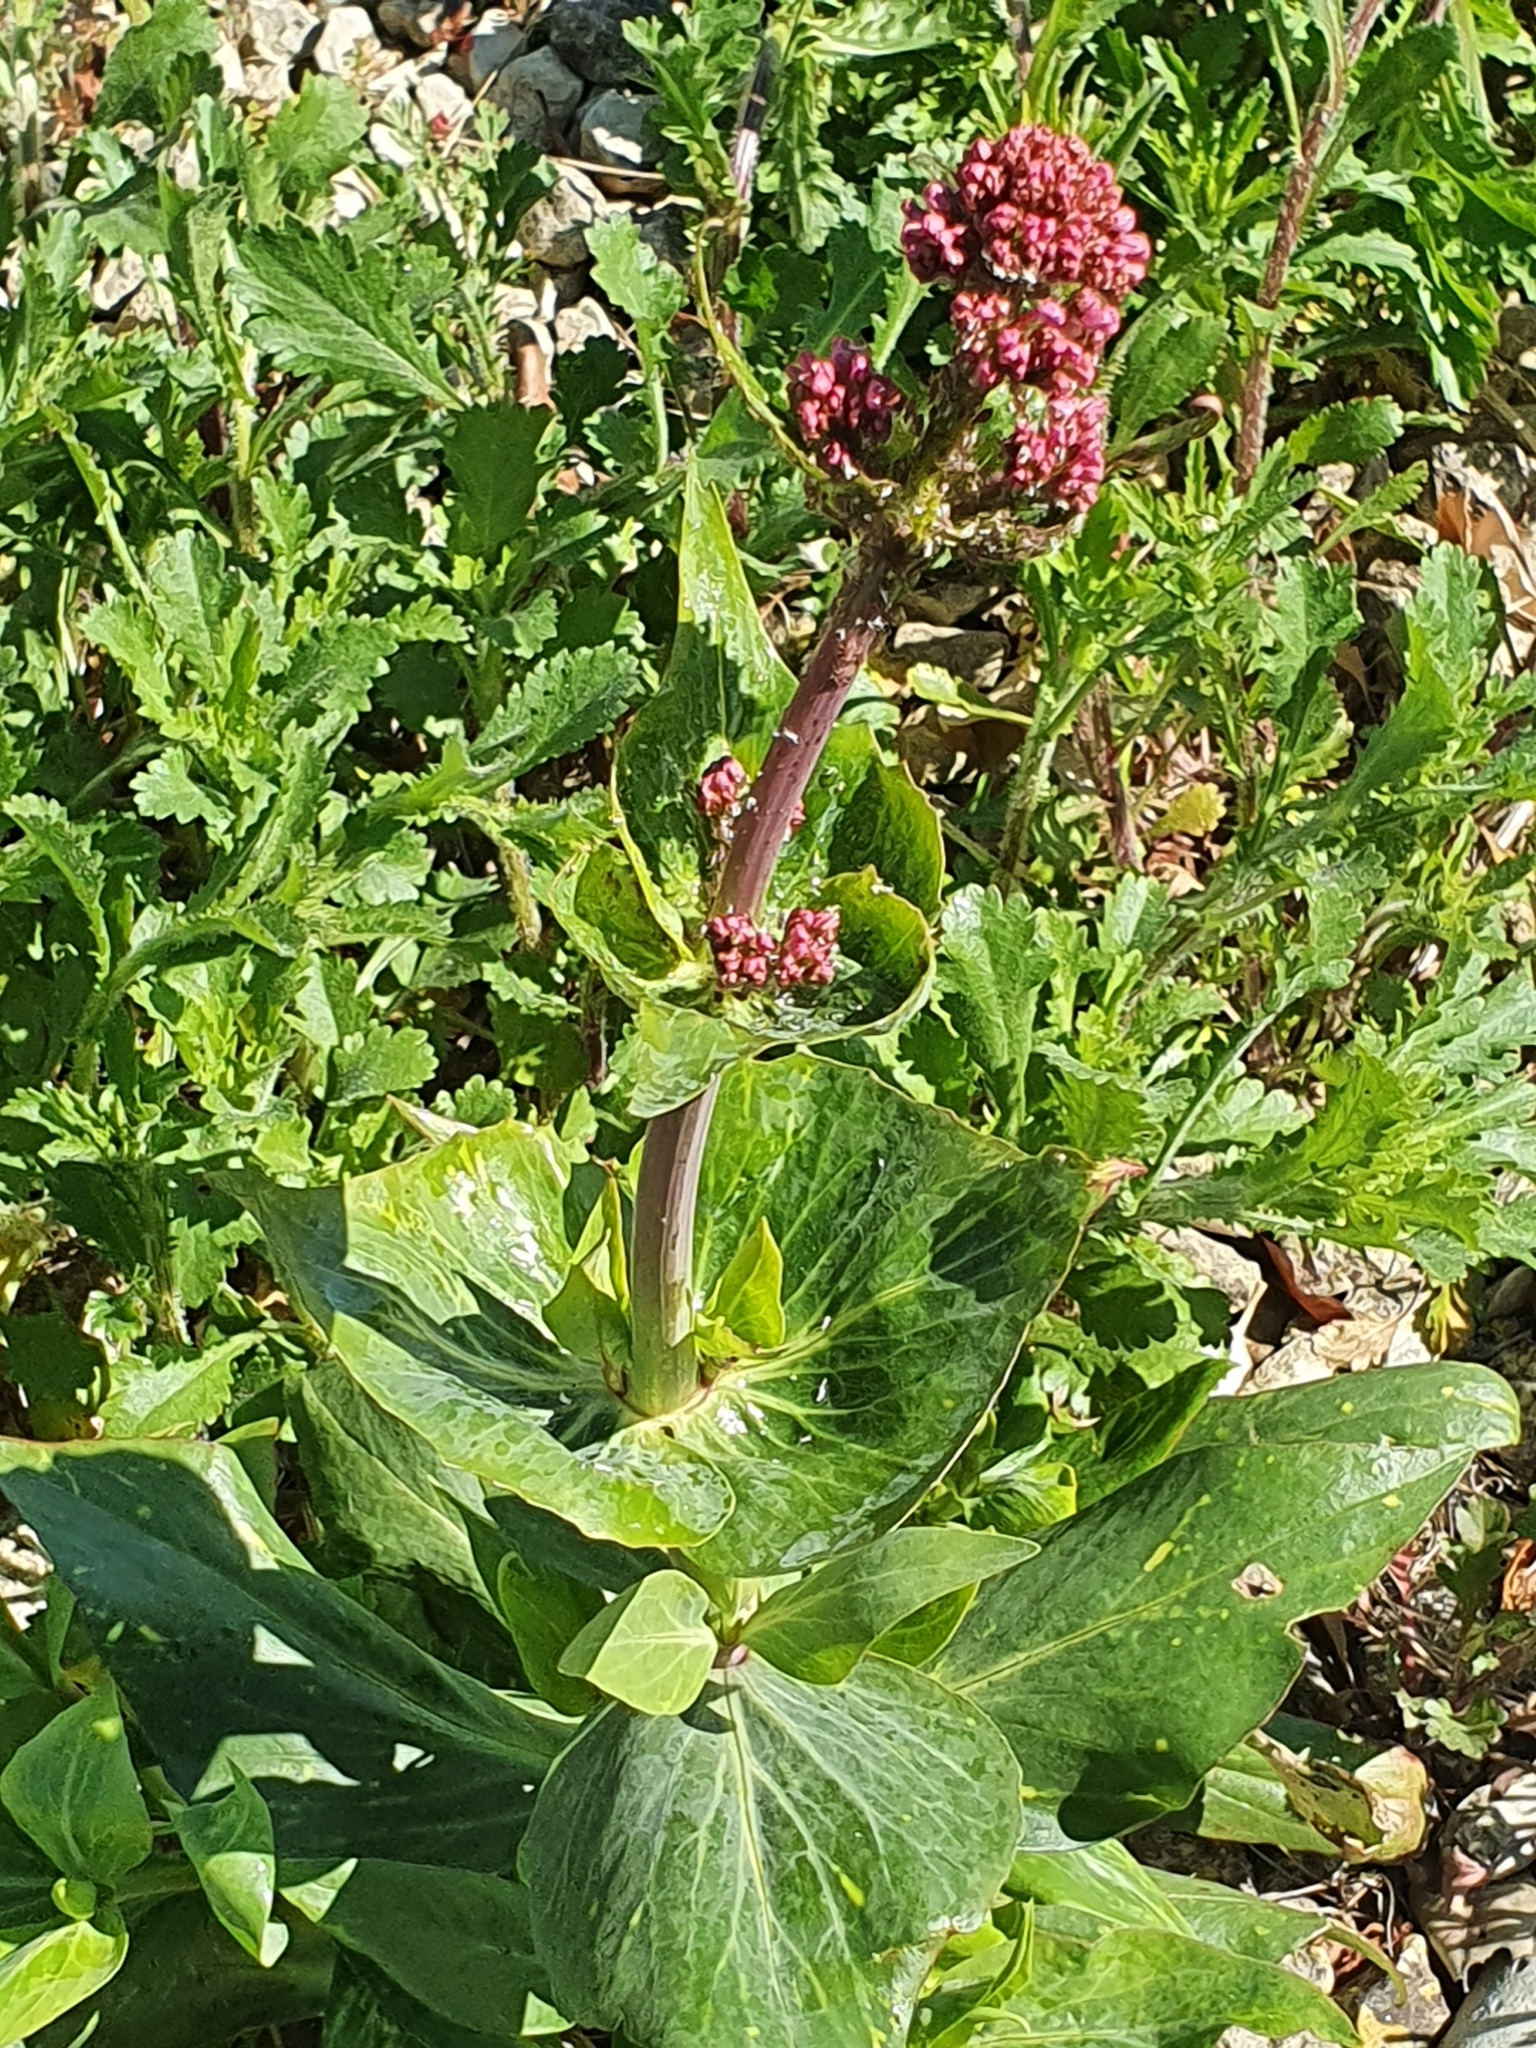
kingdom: Plantae
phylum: Tracheophyta
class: Magnoliopsida
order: Dipsacales
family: Caprifoliaceae
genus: Centranthus
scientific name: Centranthus ruber
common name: Red valerian
